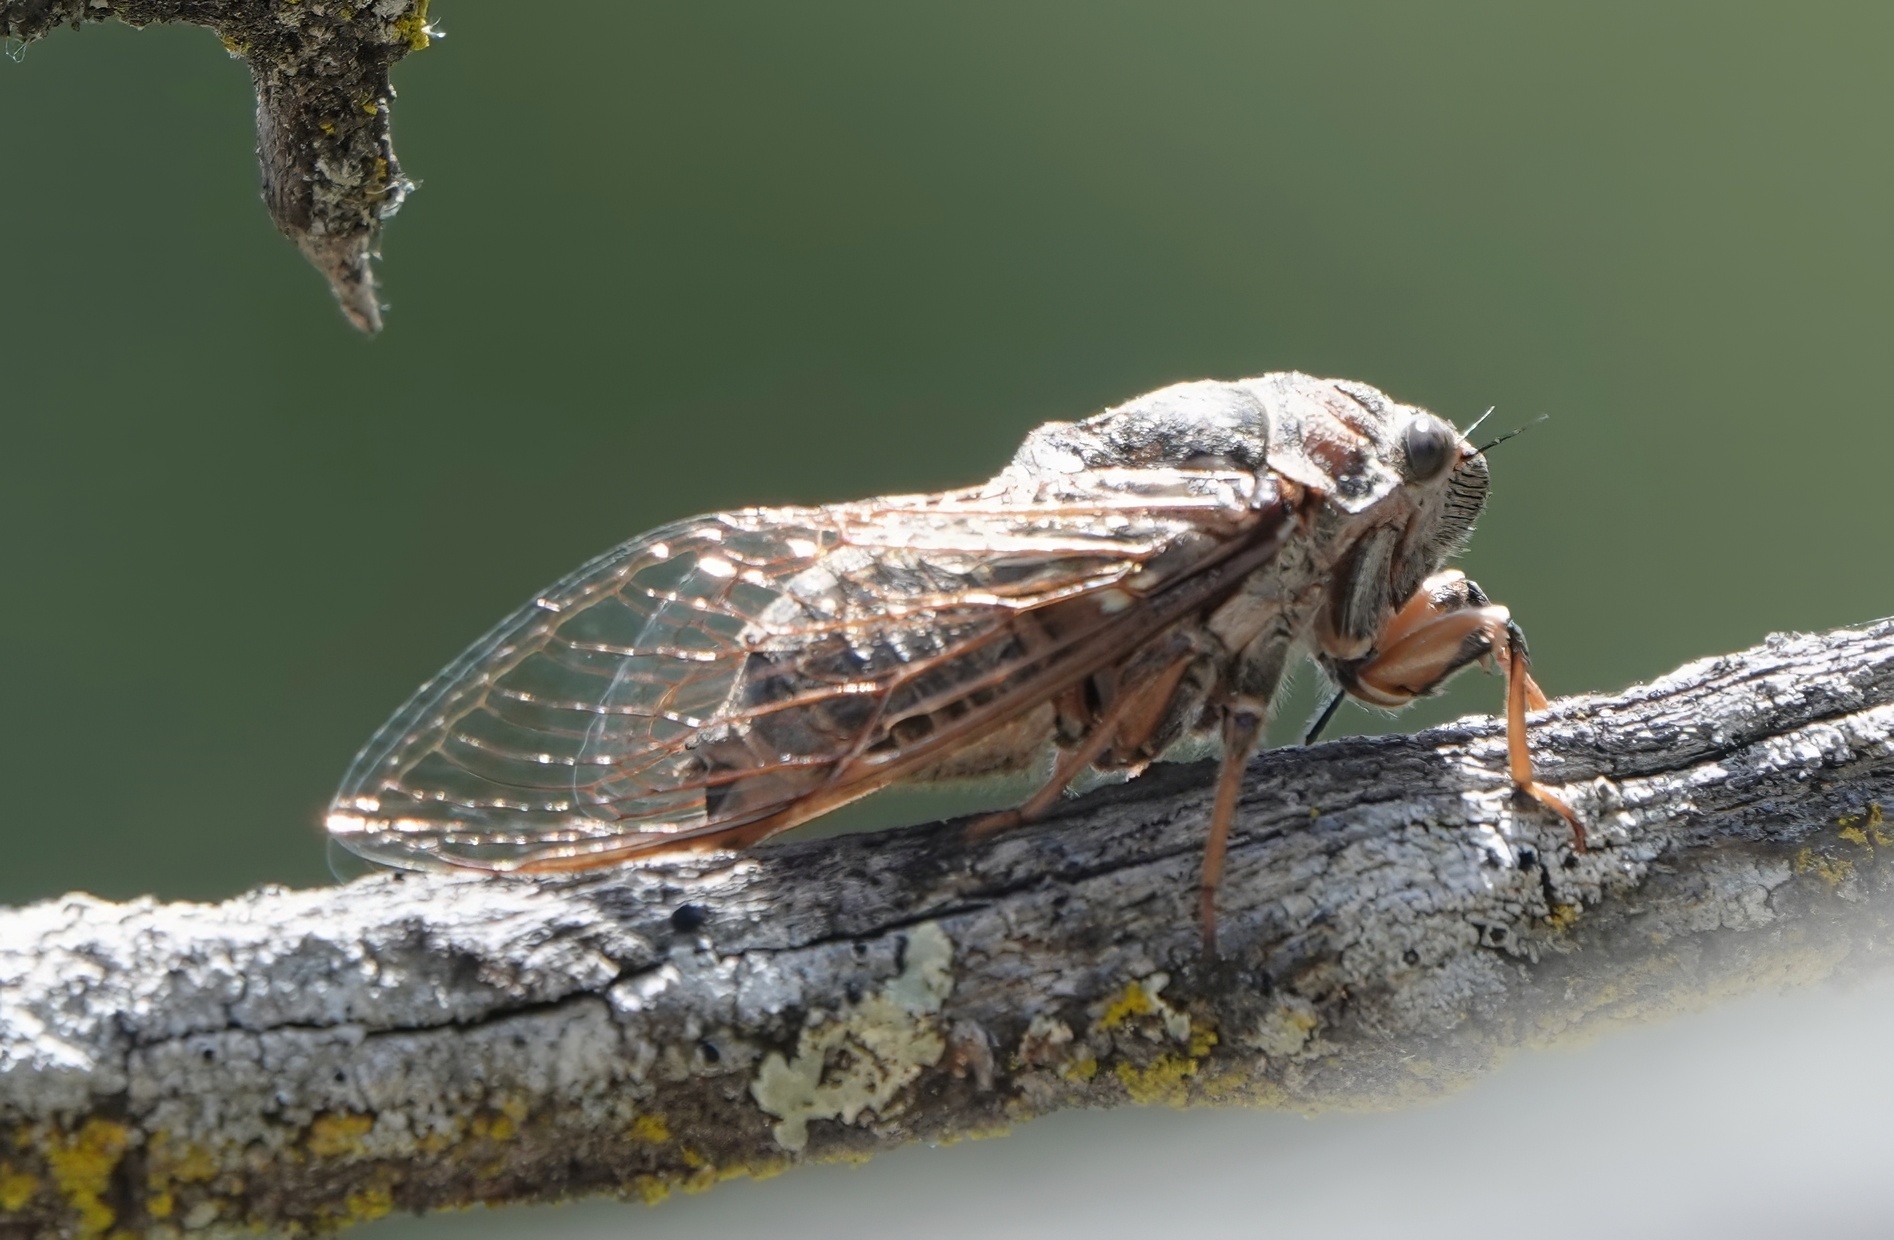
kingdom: Animalia
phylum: Arthropoda
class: Insecta
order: Hemiptera
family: Cicadidae
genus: Okanagana
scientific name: Okanagana canescens
